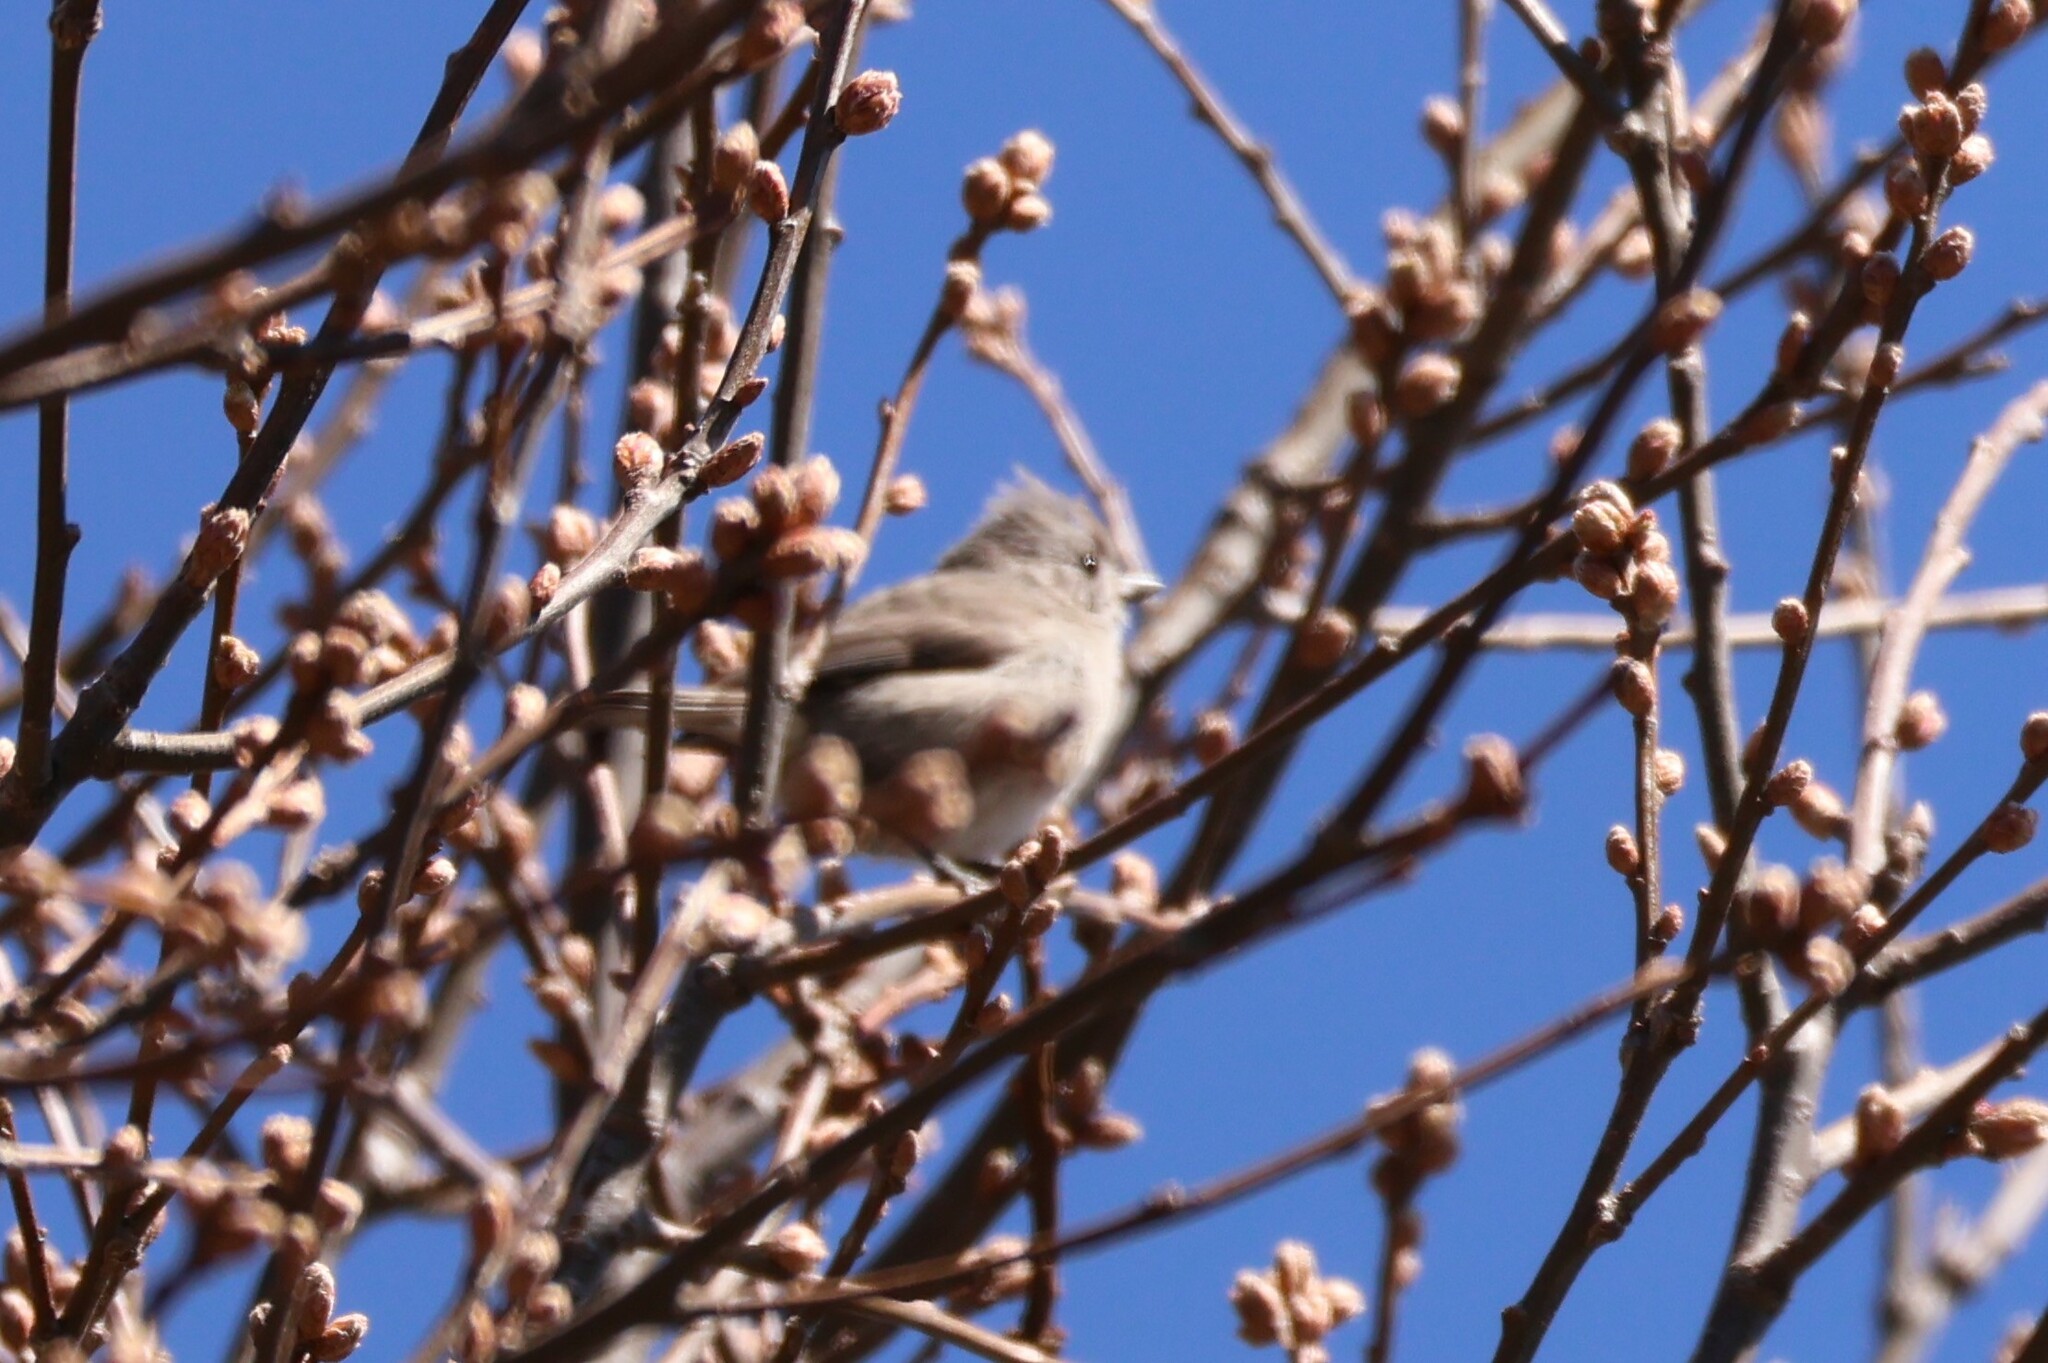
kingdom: Animalia
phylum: Chordata
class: Aves
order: Passeriformes
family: Paridae
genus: Baeolophus
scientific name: Baeolophus inornatus
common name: Oak titmouse
